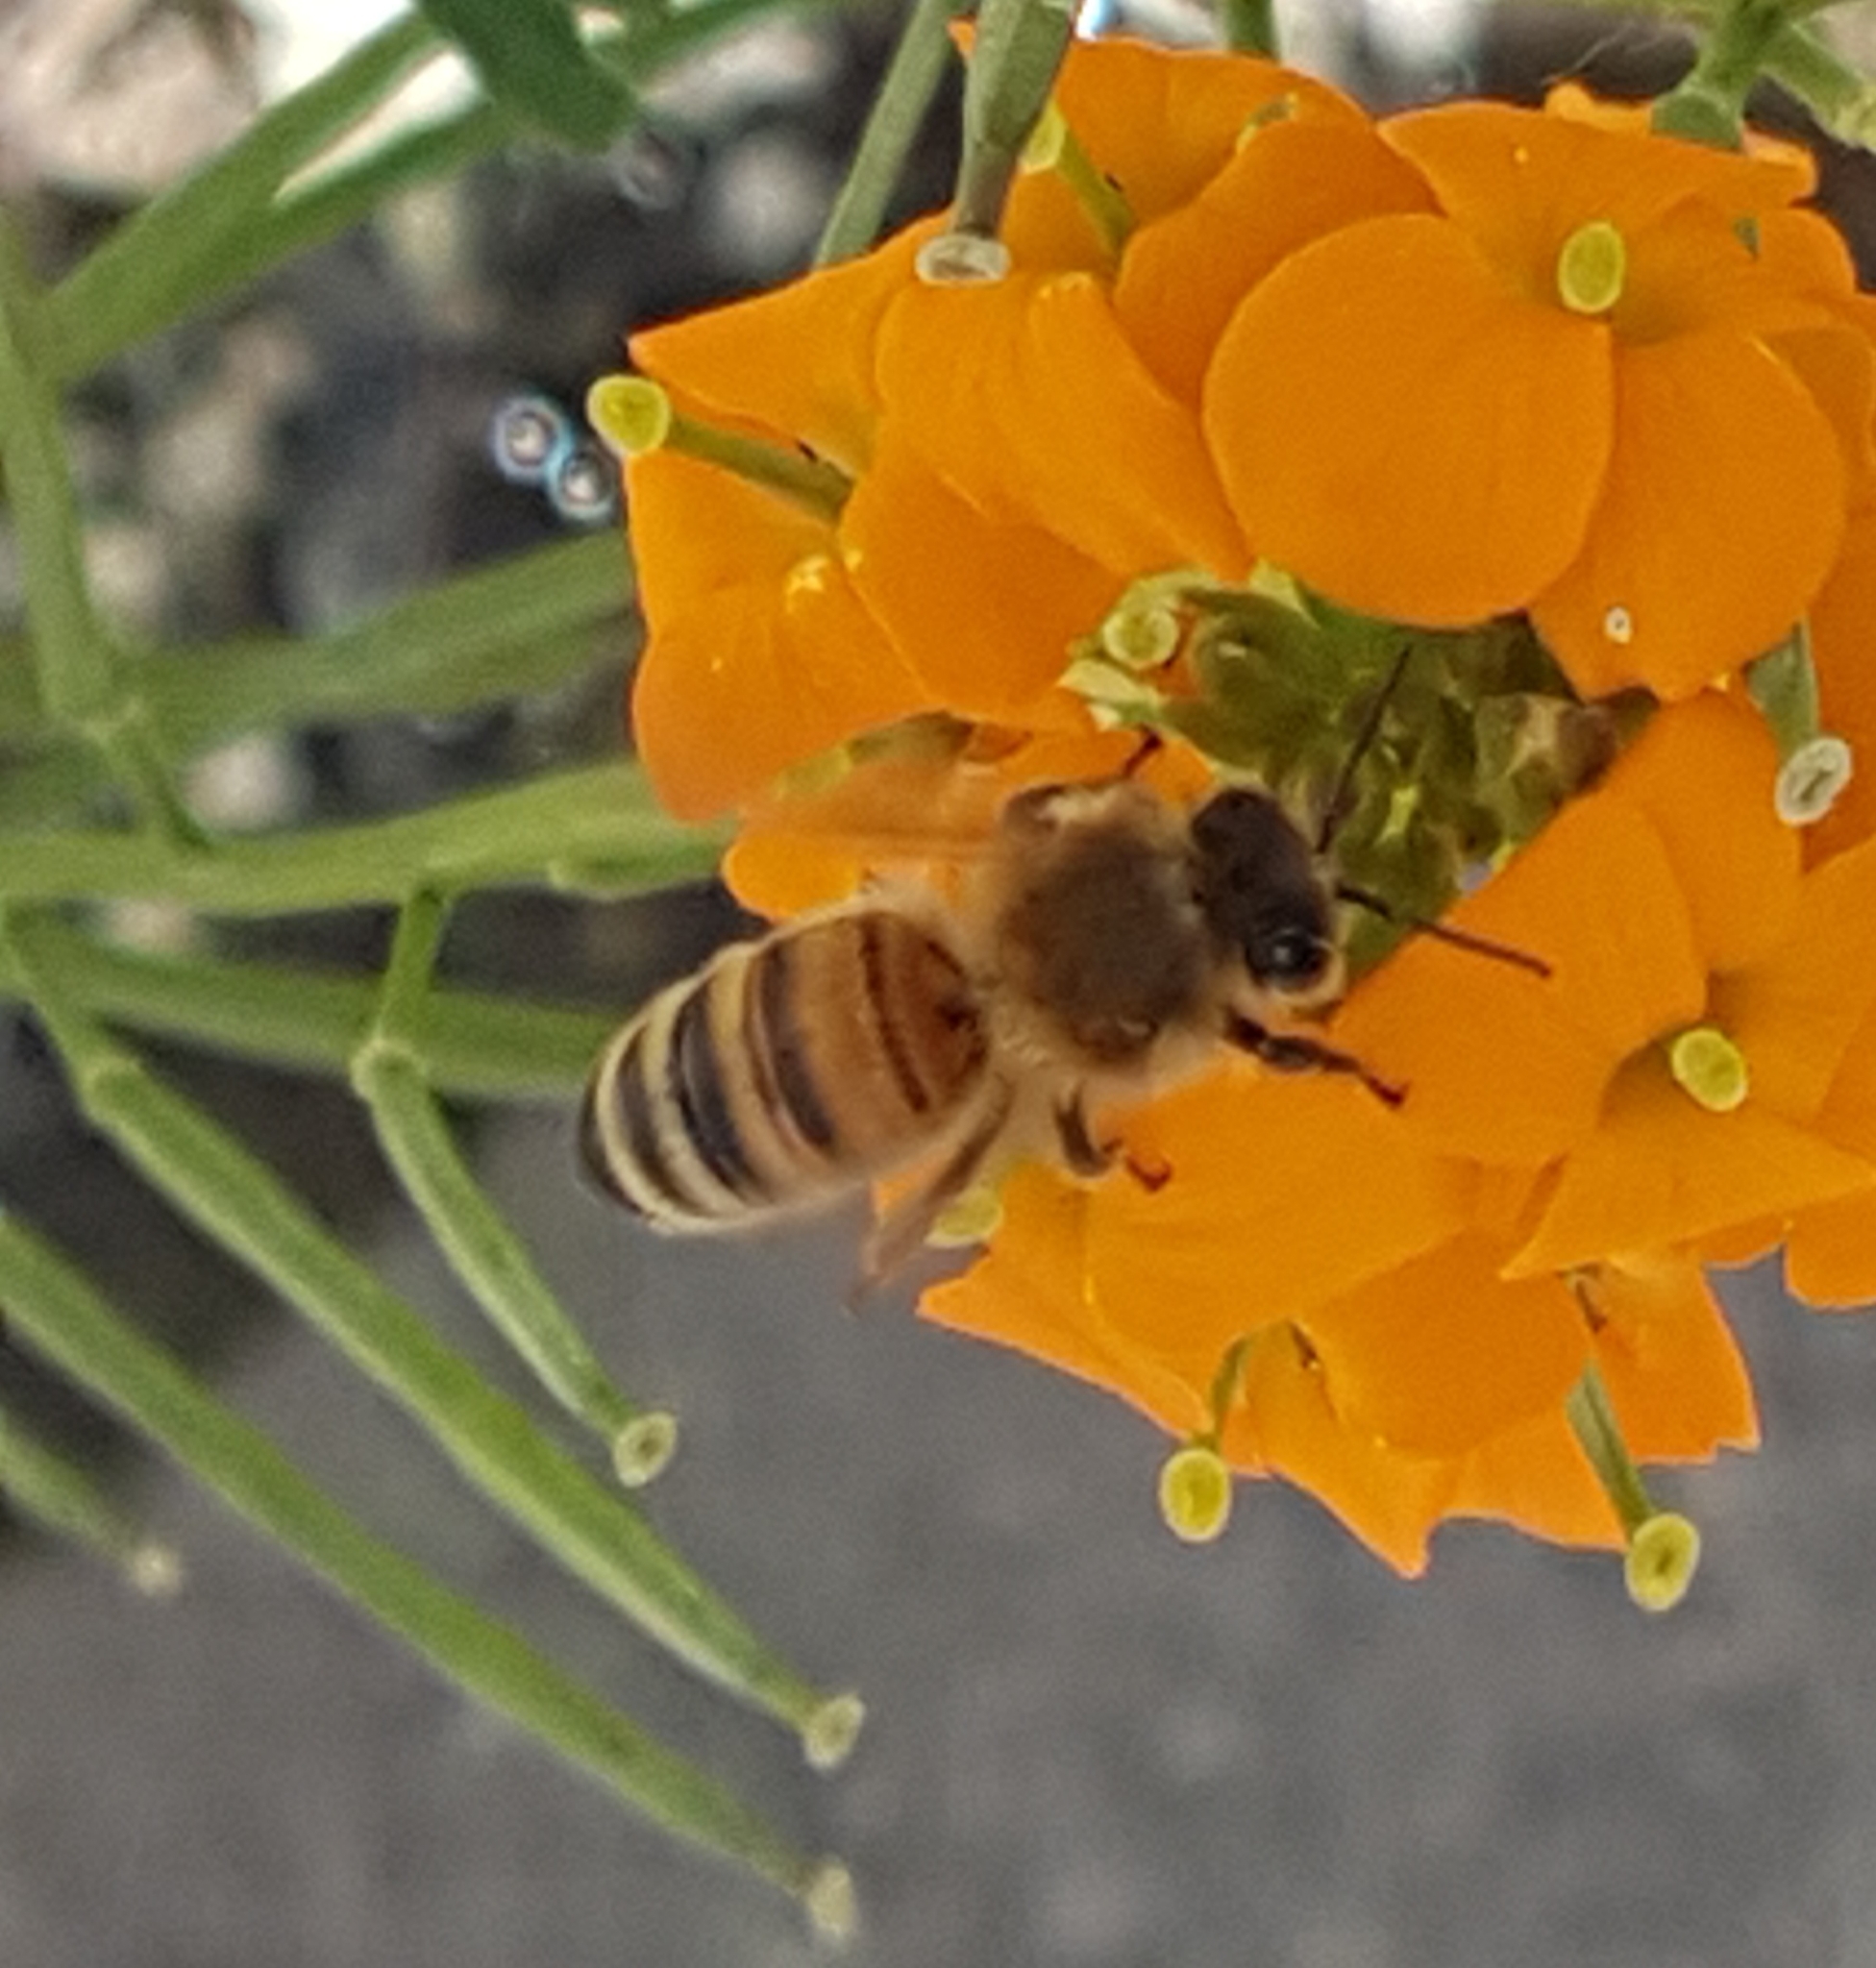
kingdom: Animalia
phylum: Arthropoda
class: Insecta
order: Hymenoptera
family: Apidae
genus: Apis
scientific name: Apis mellifera
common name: Honey bee
